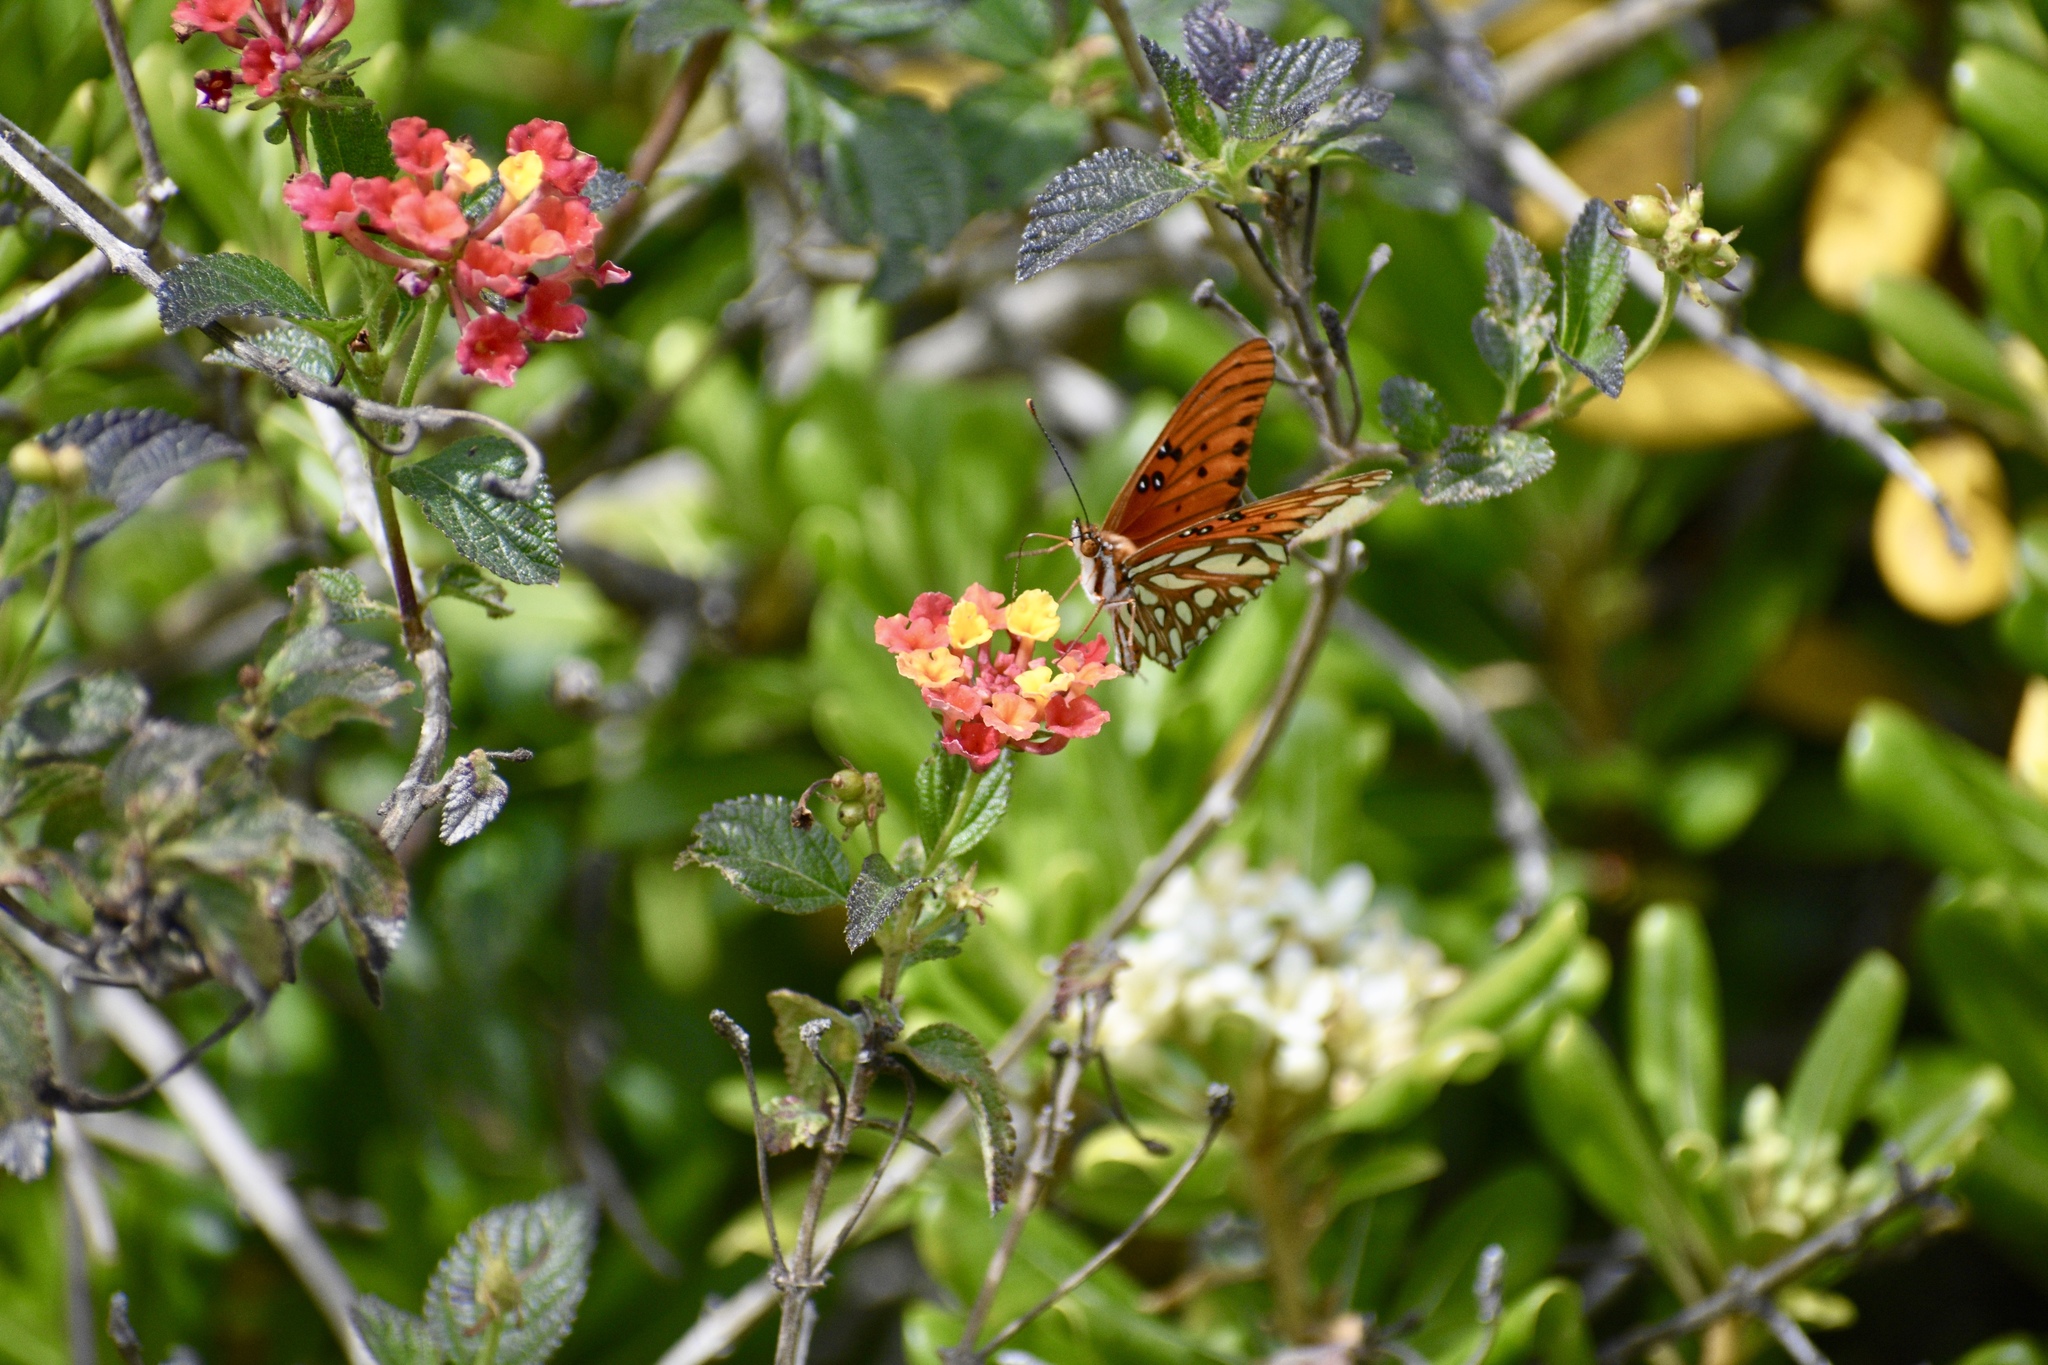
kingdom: Animalia
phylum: Arthropoda
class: Insecta
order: Lepidoptera
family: Nymphalidae
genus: Dione
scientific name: Dione vanillae
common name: Gulf fritillary
